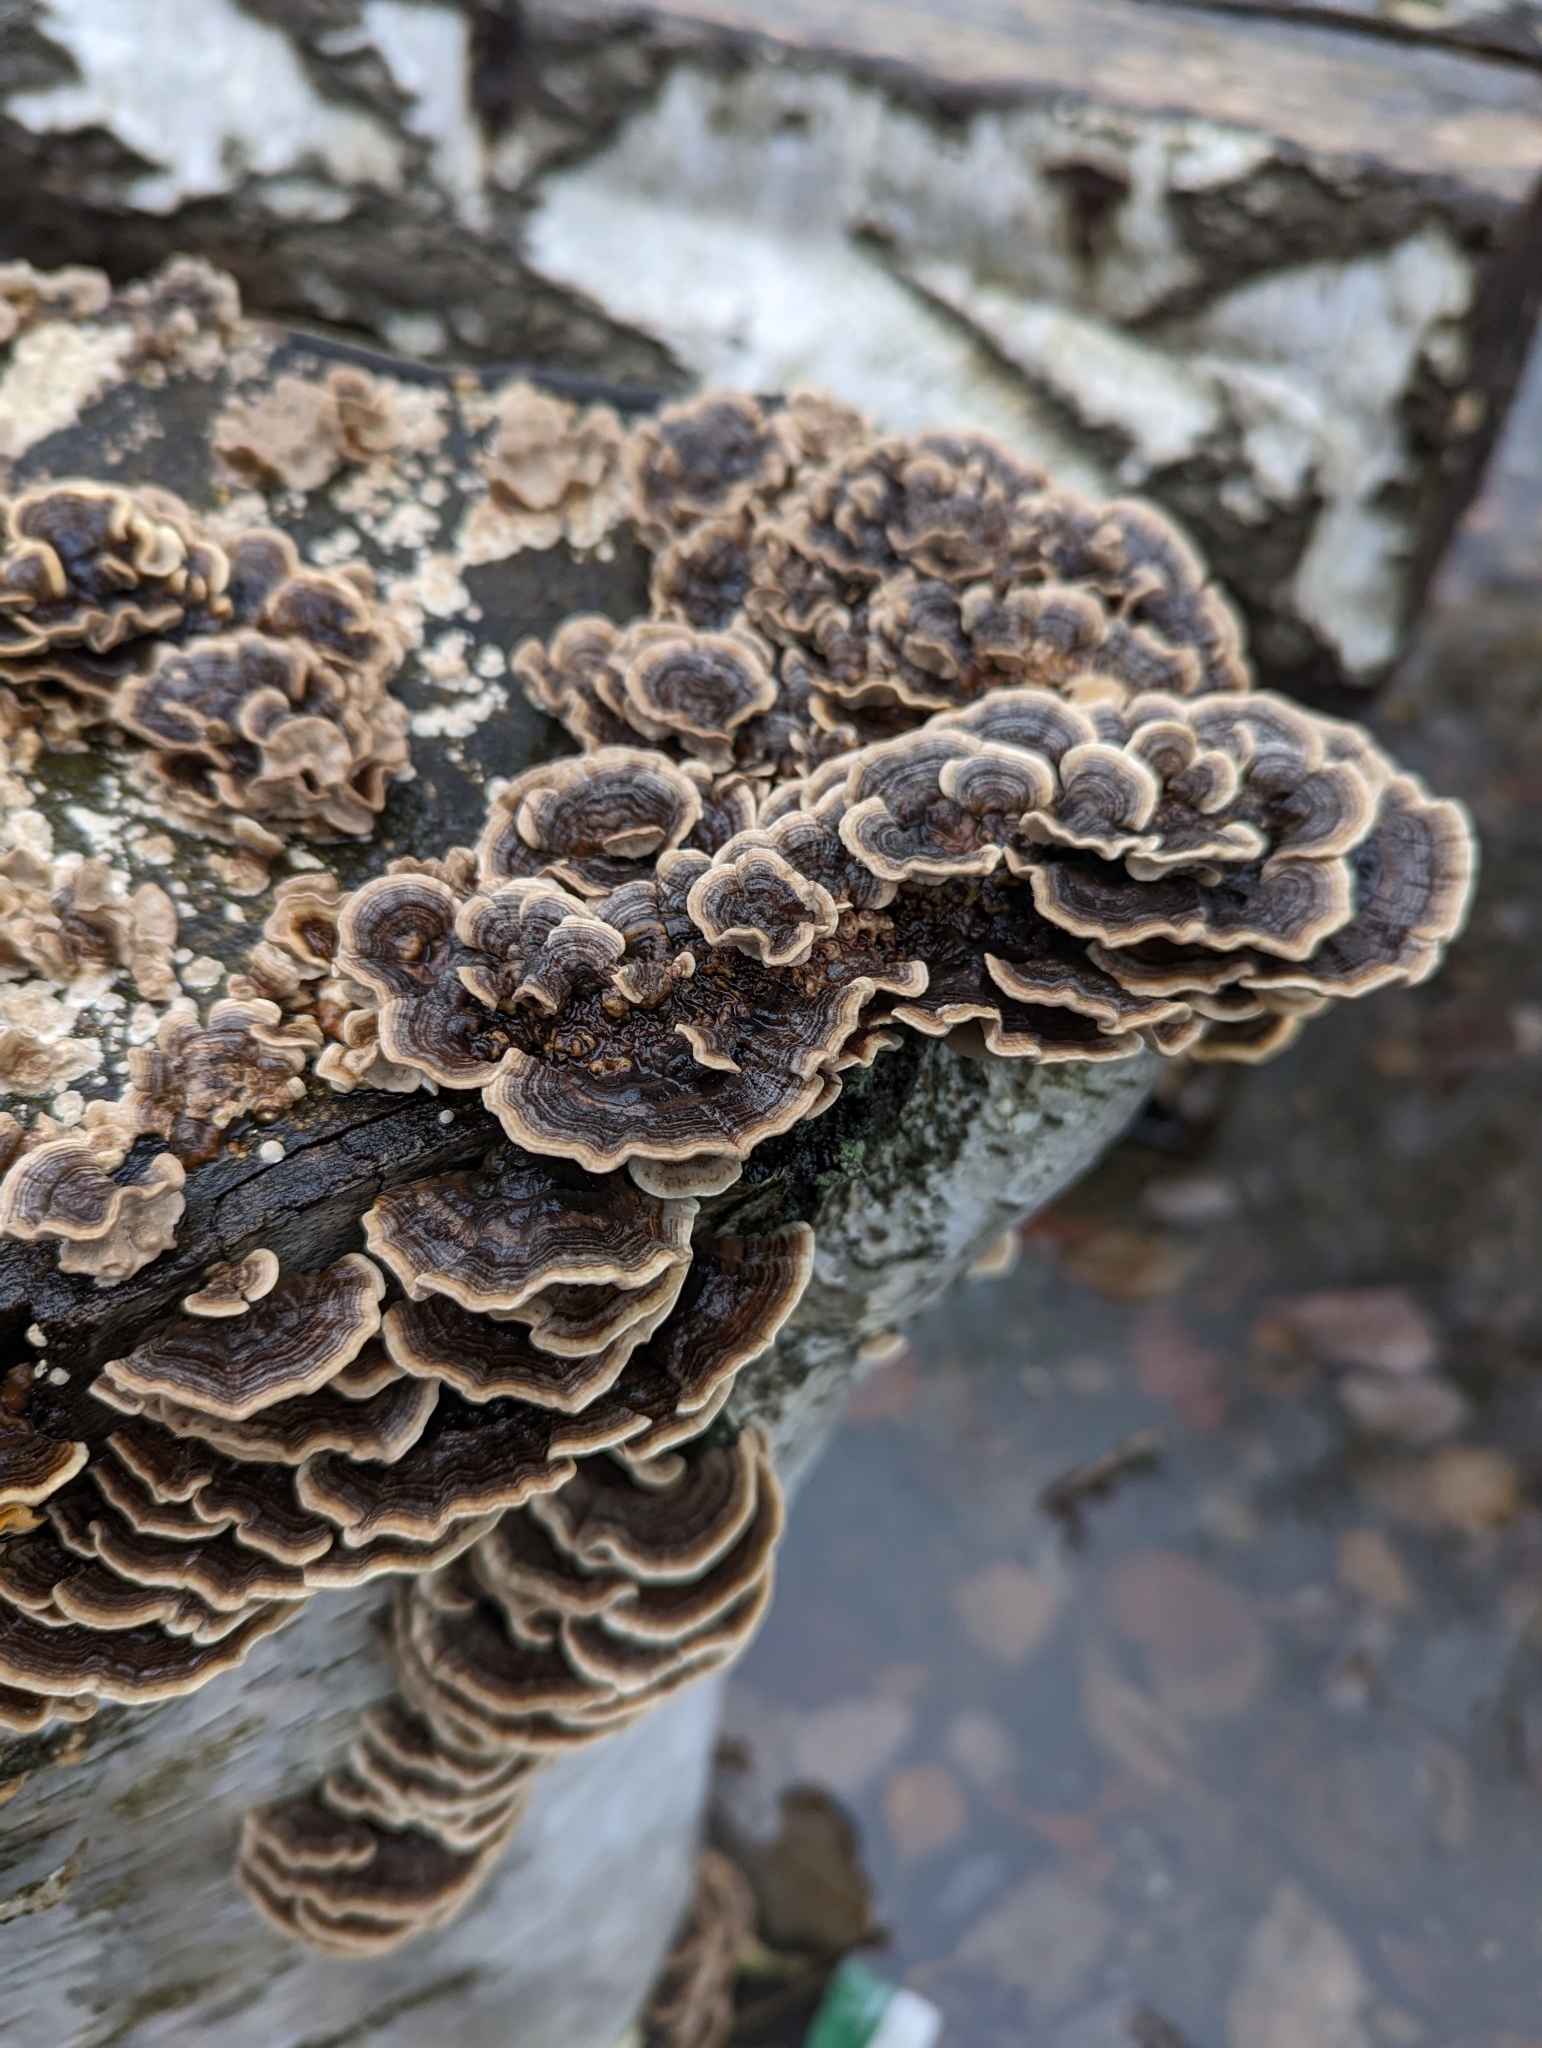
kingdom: Fungi
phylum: Basidiomycota
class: Agaricomycetes
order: Polyporales
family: Polyporaceae
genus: Trametes
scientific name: Trametes versicolor
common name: Turkeytail
